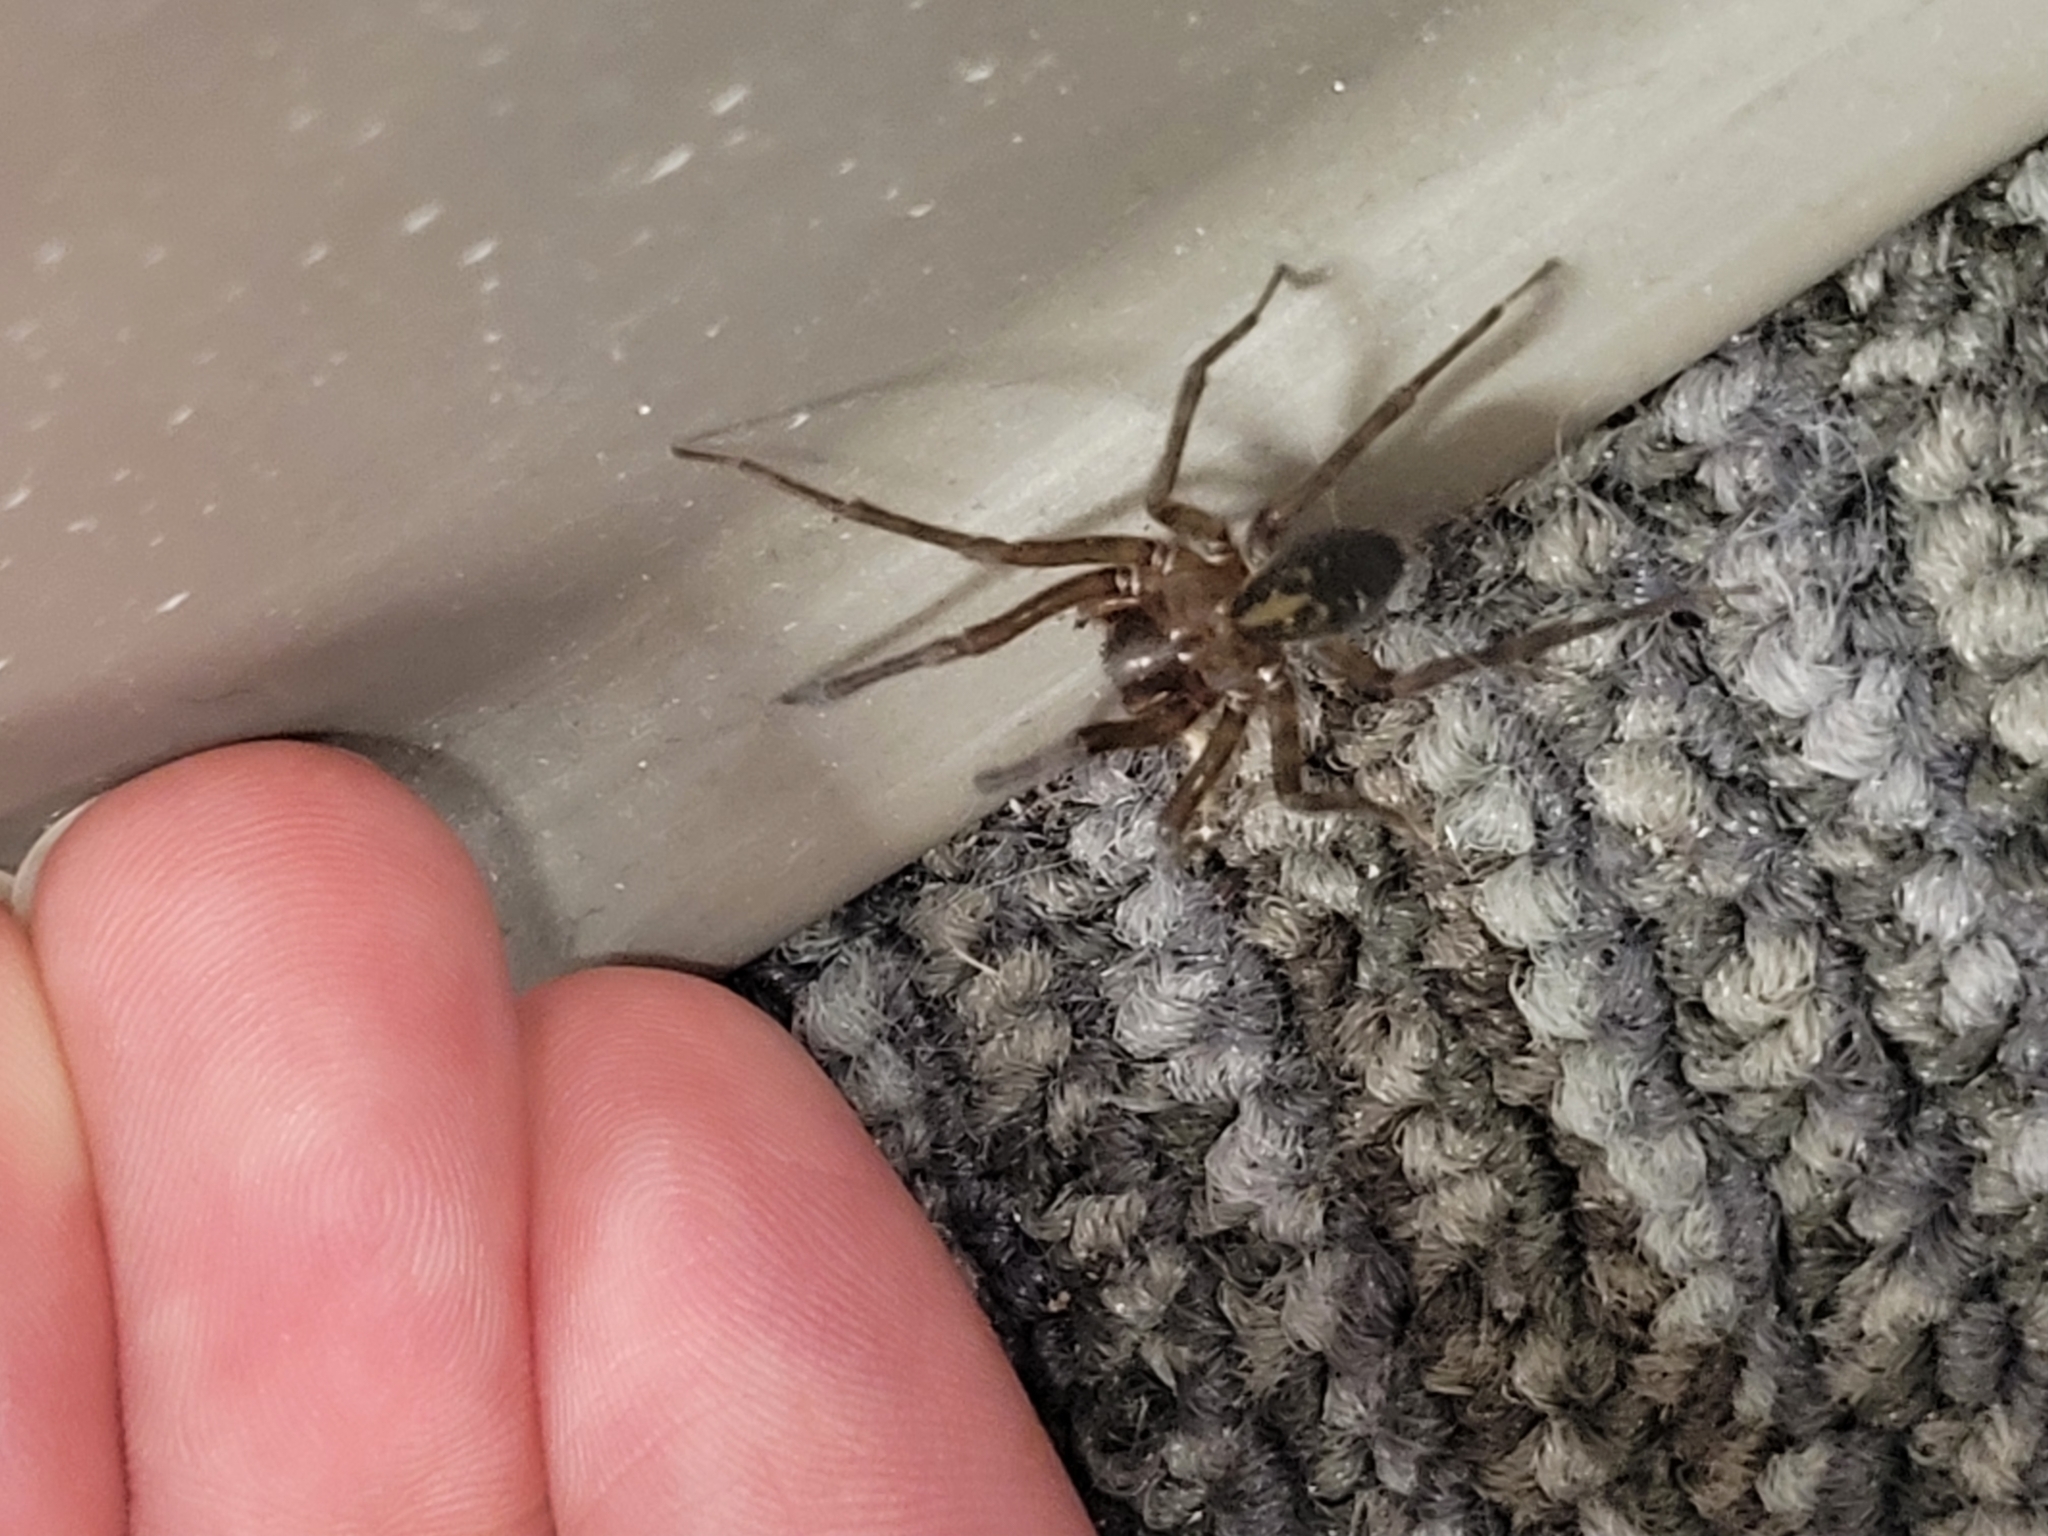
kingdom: Animalia
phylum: Arthropoda
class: Arachnida
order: Araneae
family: Amaurobiidae
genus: Amaurobius
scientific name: Amaurobius ferox
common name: Black laceweaver
